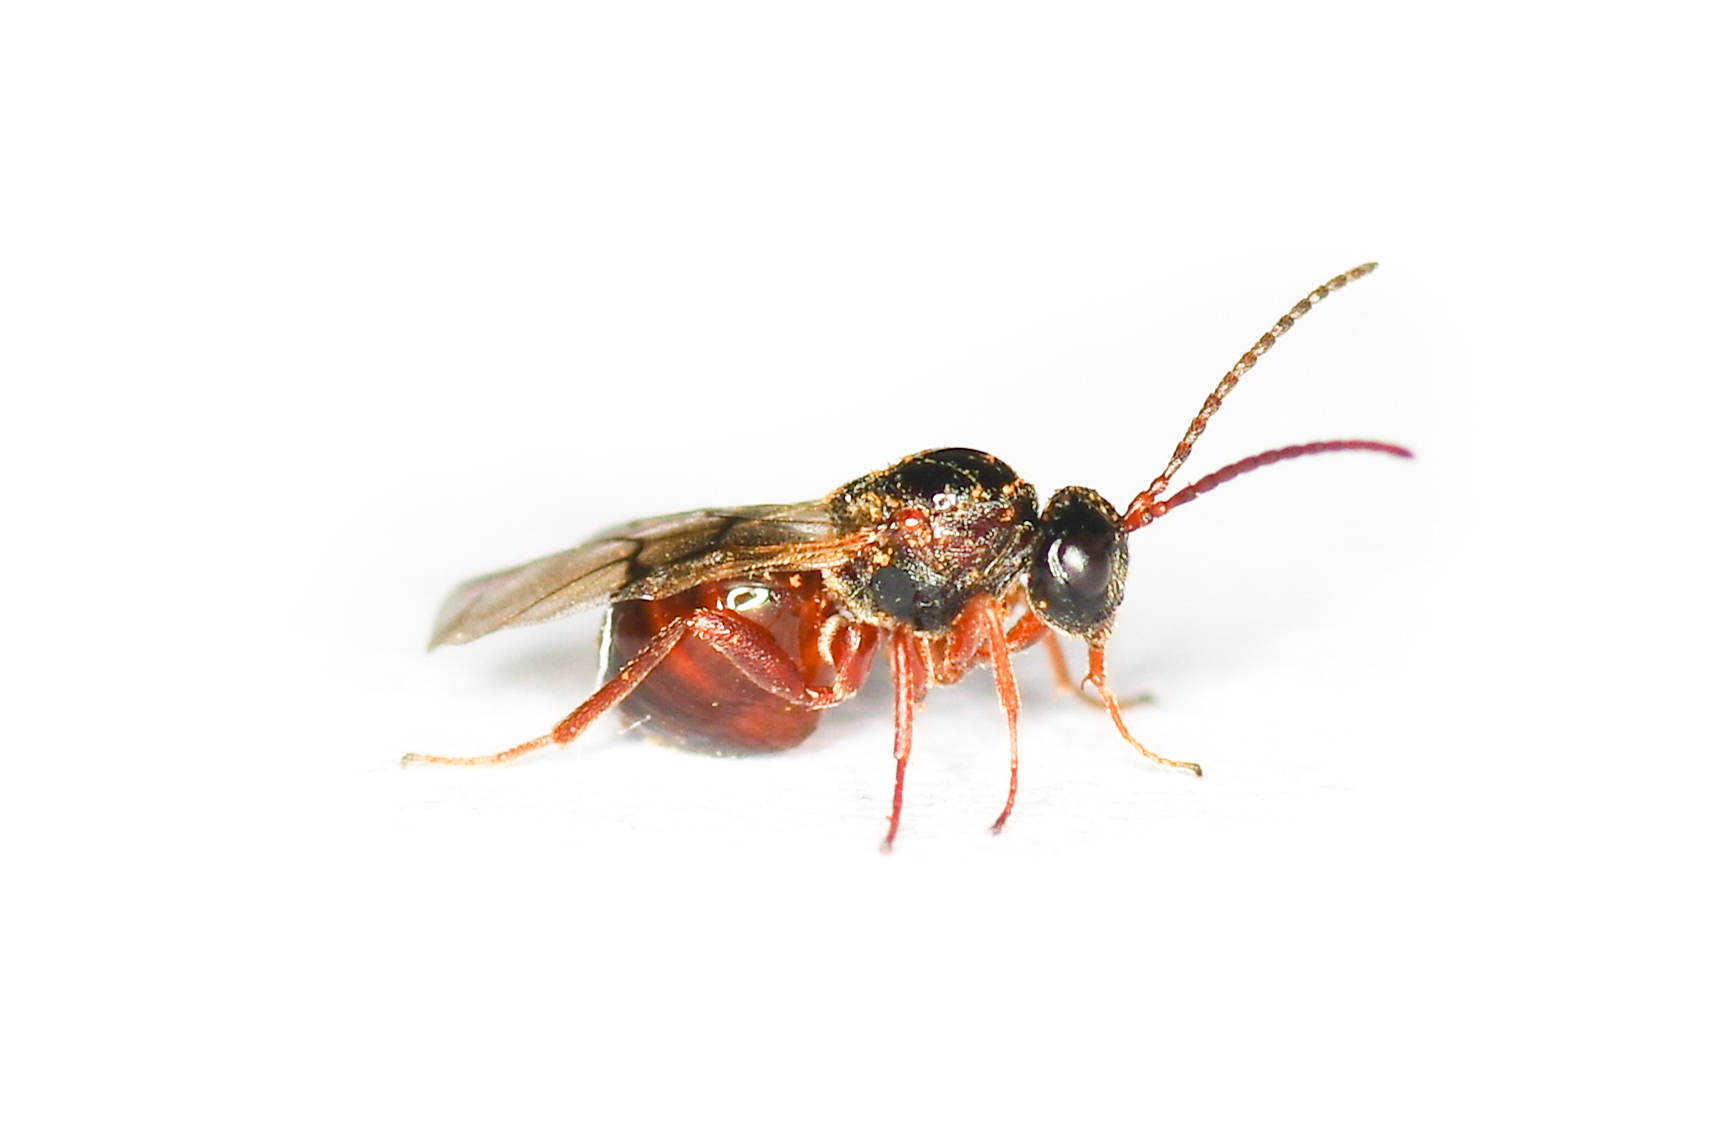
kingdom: Animalia
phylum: Arthropoda
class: Insecta
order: Hymenoptera
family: Cynipidae
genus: Diastrophus
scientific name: Diastrophus
